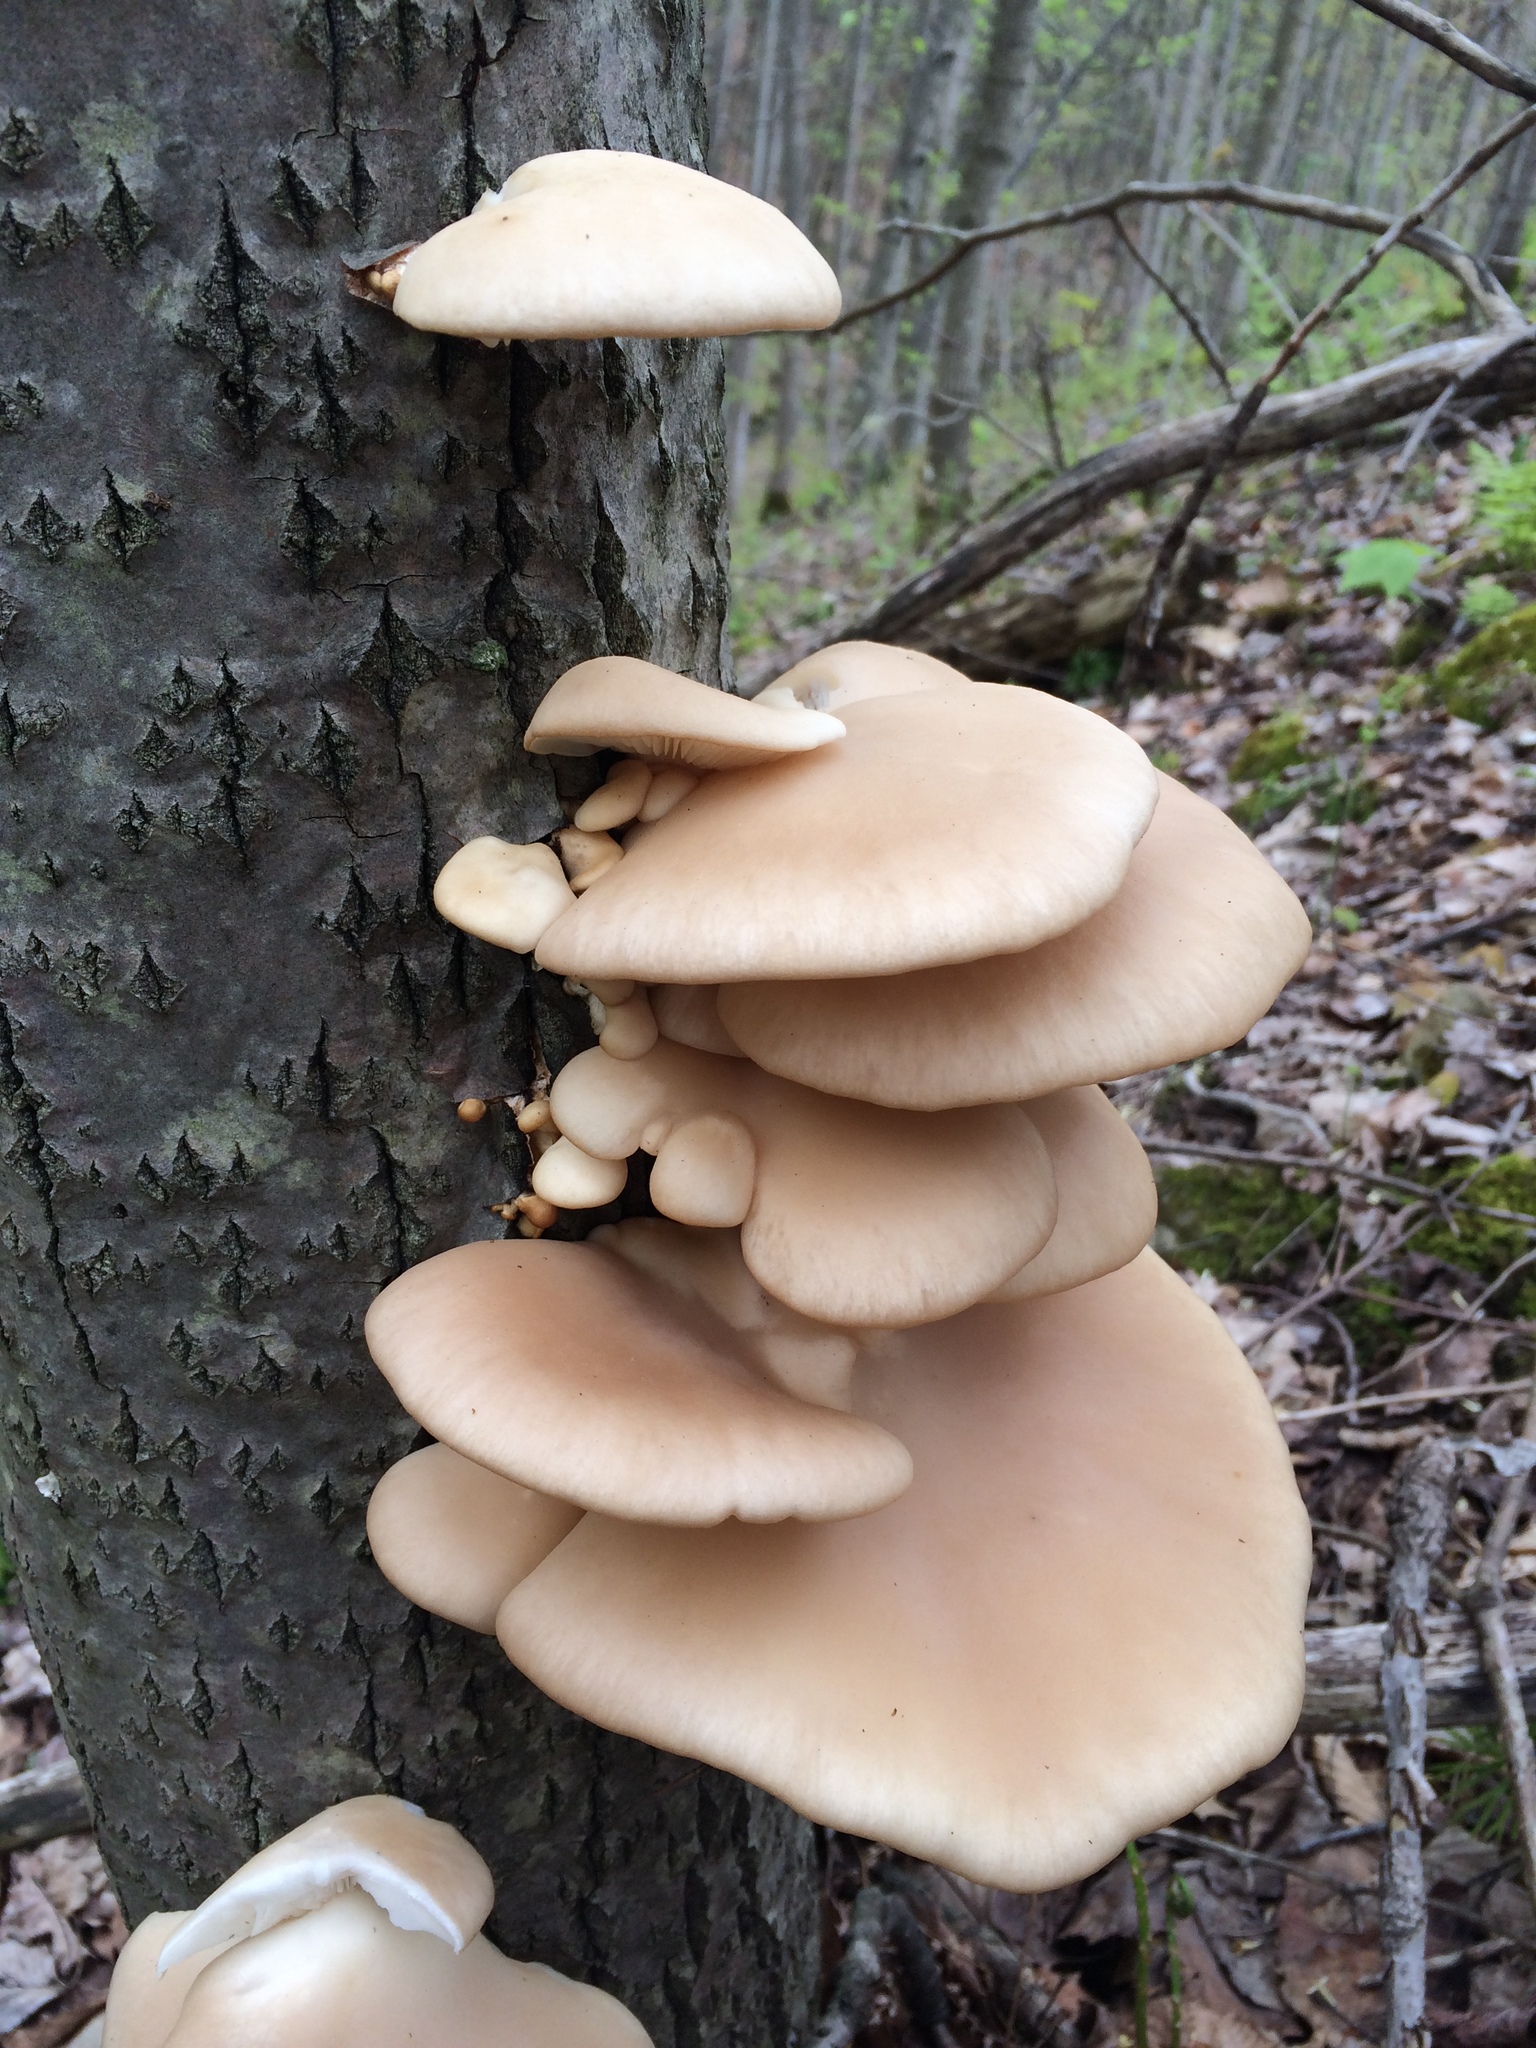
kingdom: Fungi
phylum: Basidiomycota
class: Agaricomycetes
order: Agaricales
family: Pleurotaceae
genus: Pleurotus
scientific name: Pleurotus populinus
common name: Aspen oyster mushroom
